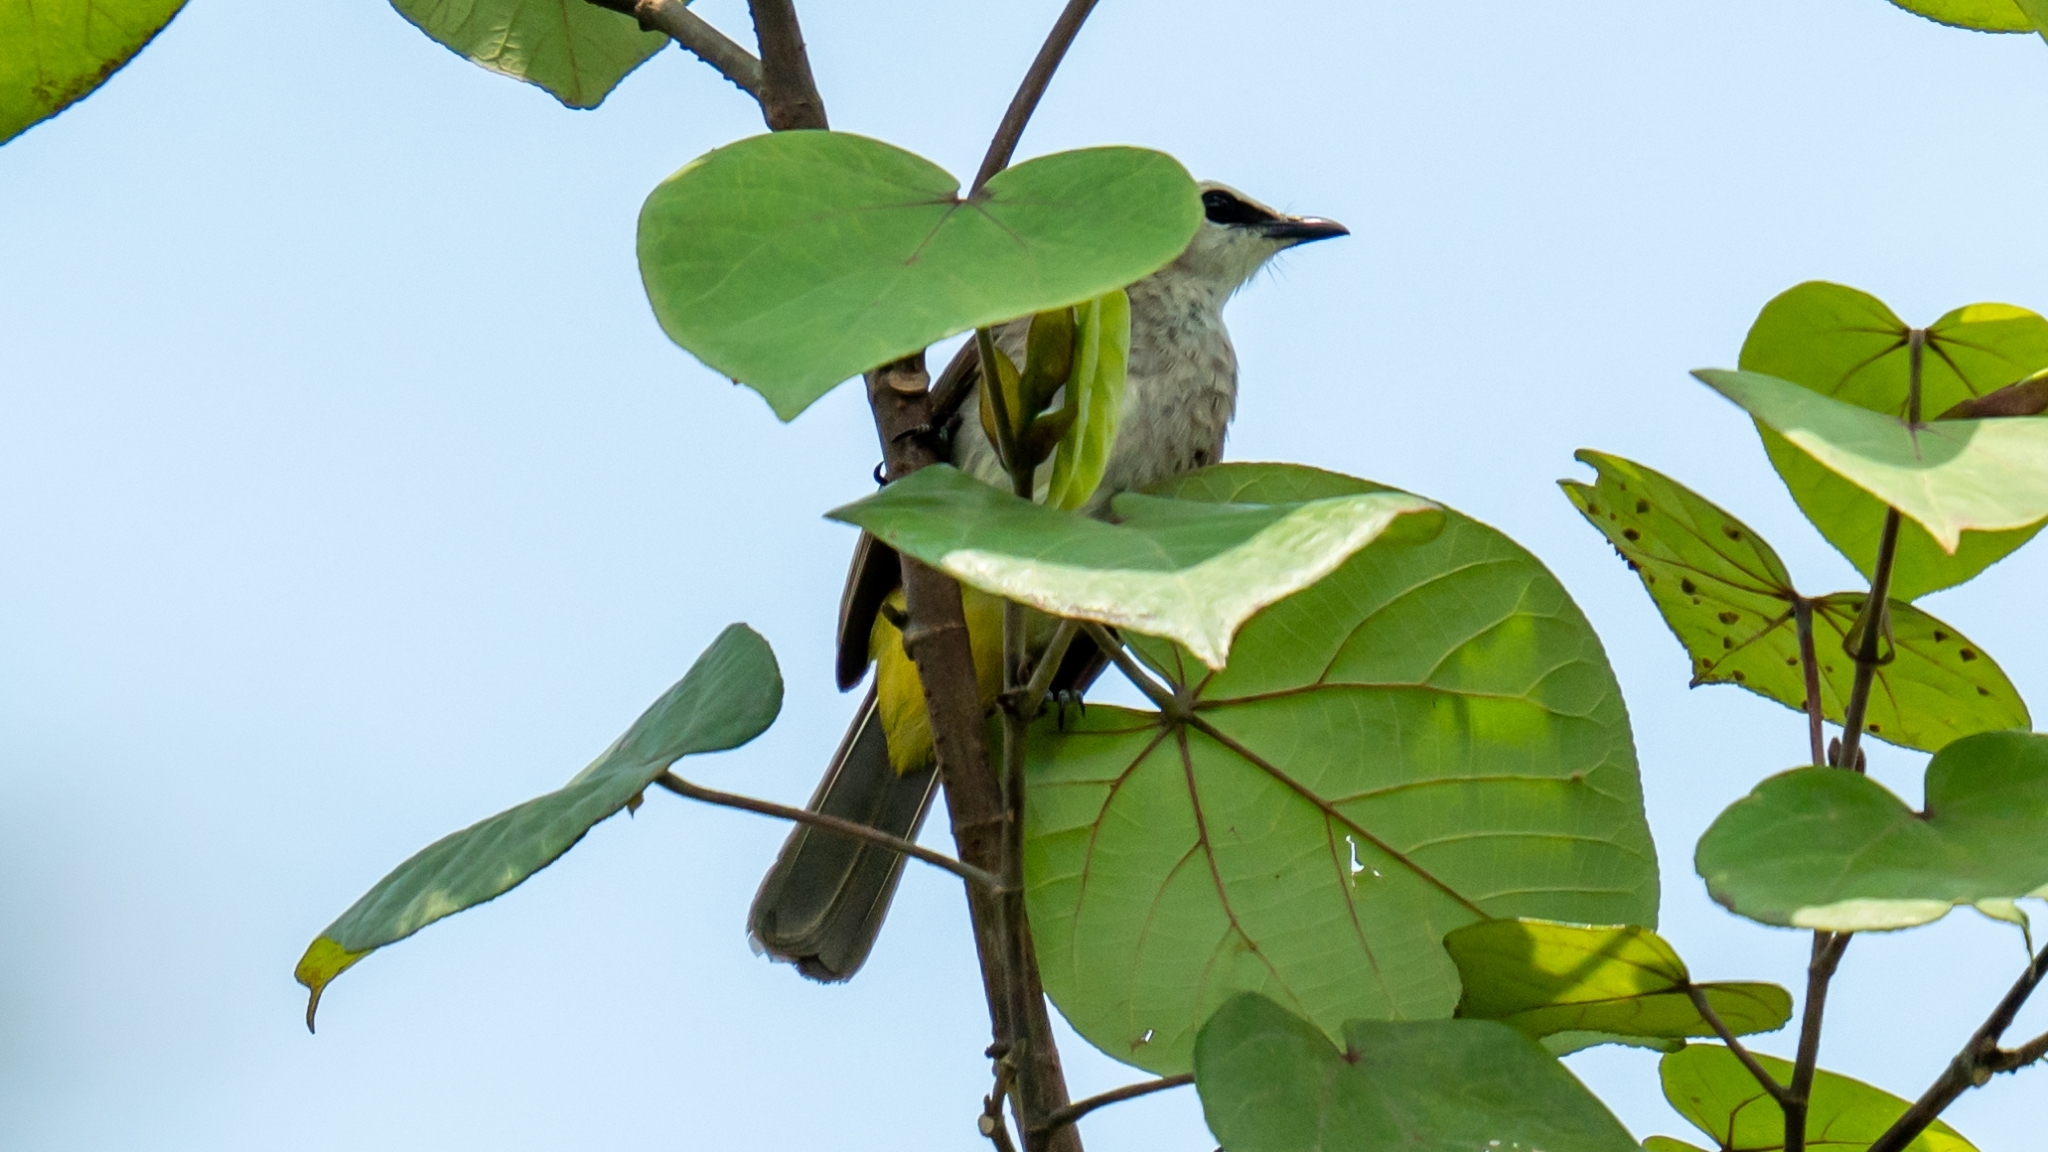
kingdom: Animalia
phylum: Chordata
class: Aves
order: Passeriformes
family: Pycnonotidae
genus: Pycnonotus
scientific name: Pycnonotus goiavier
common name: Yellow-vented bulbul
